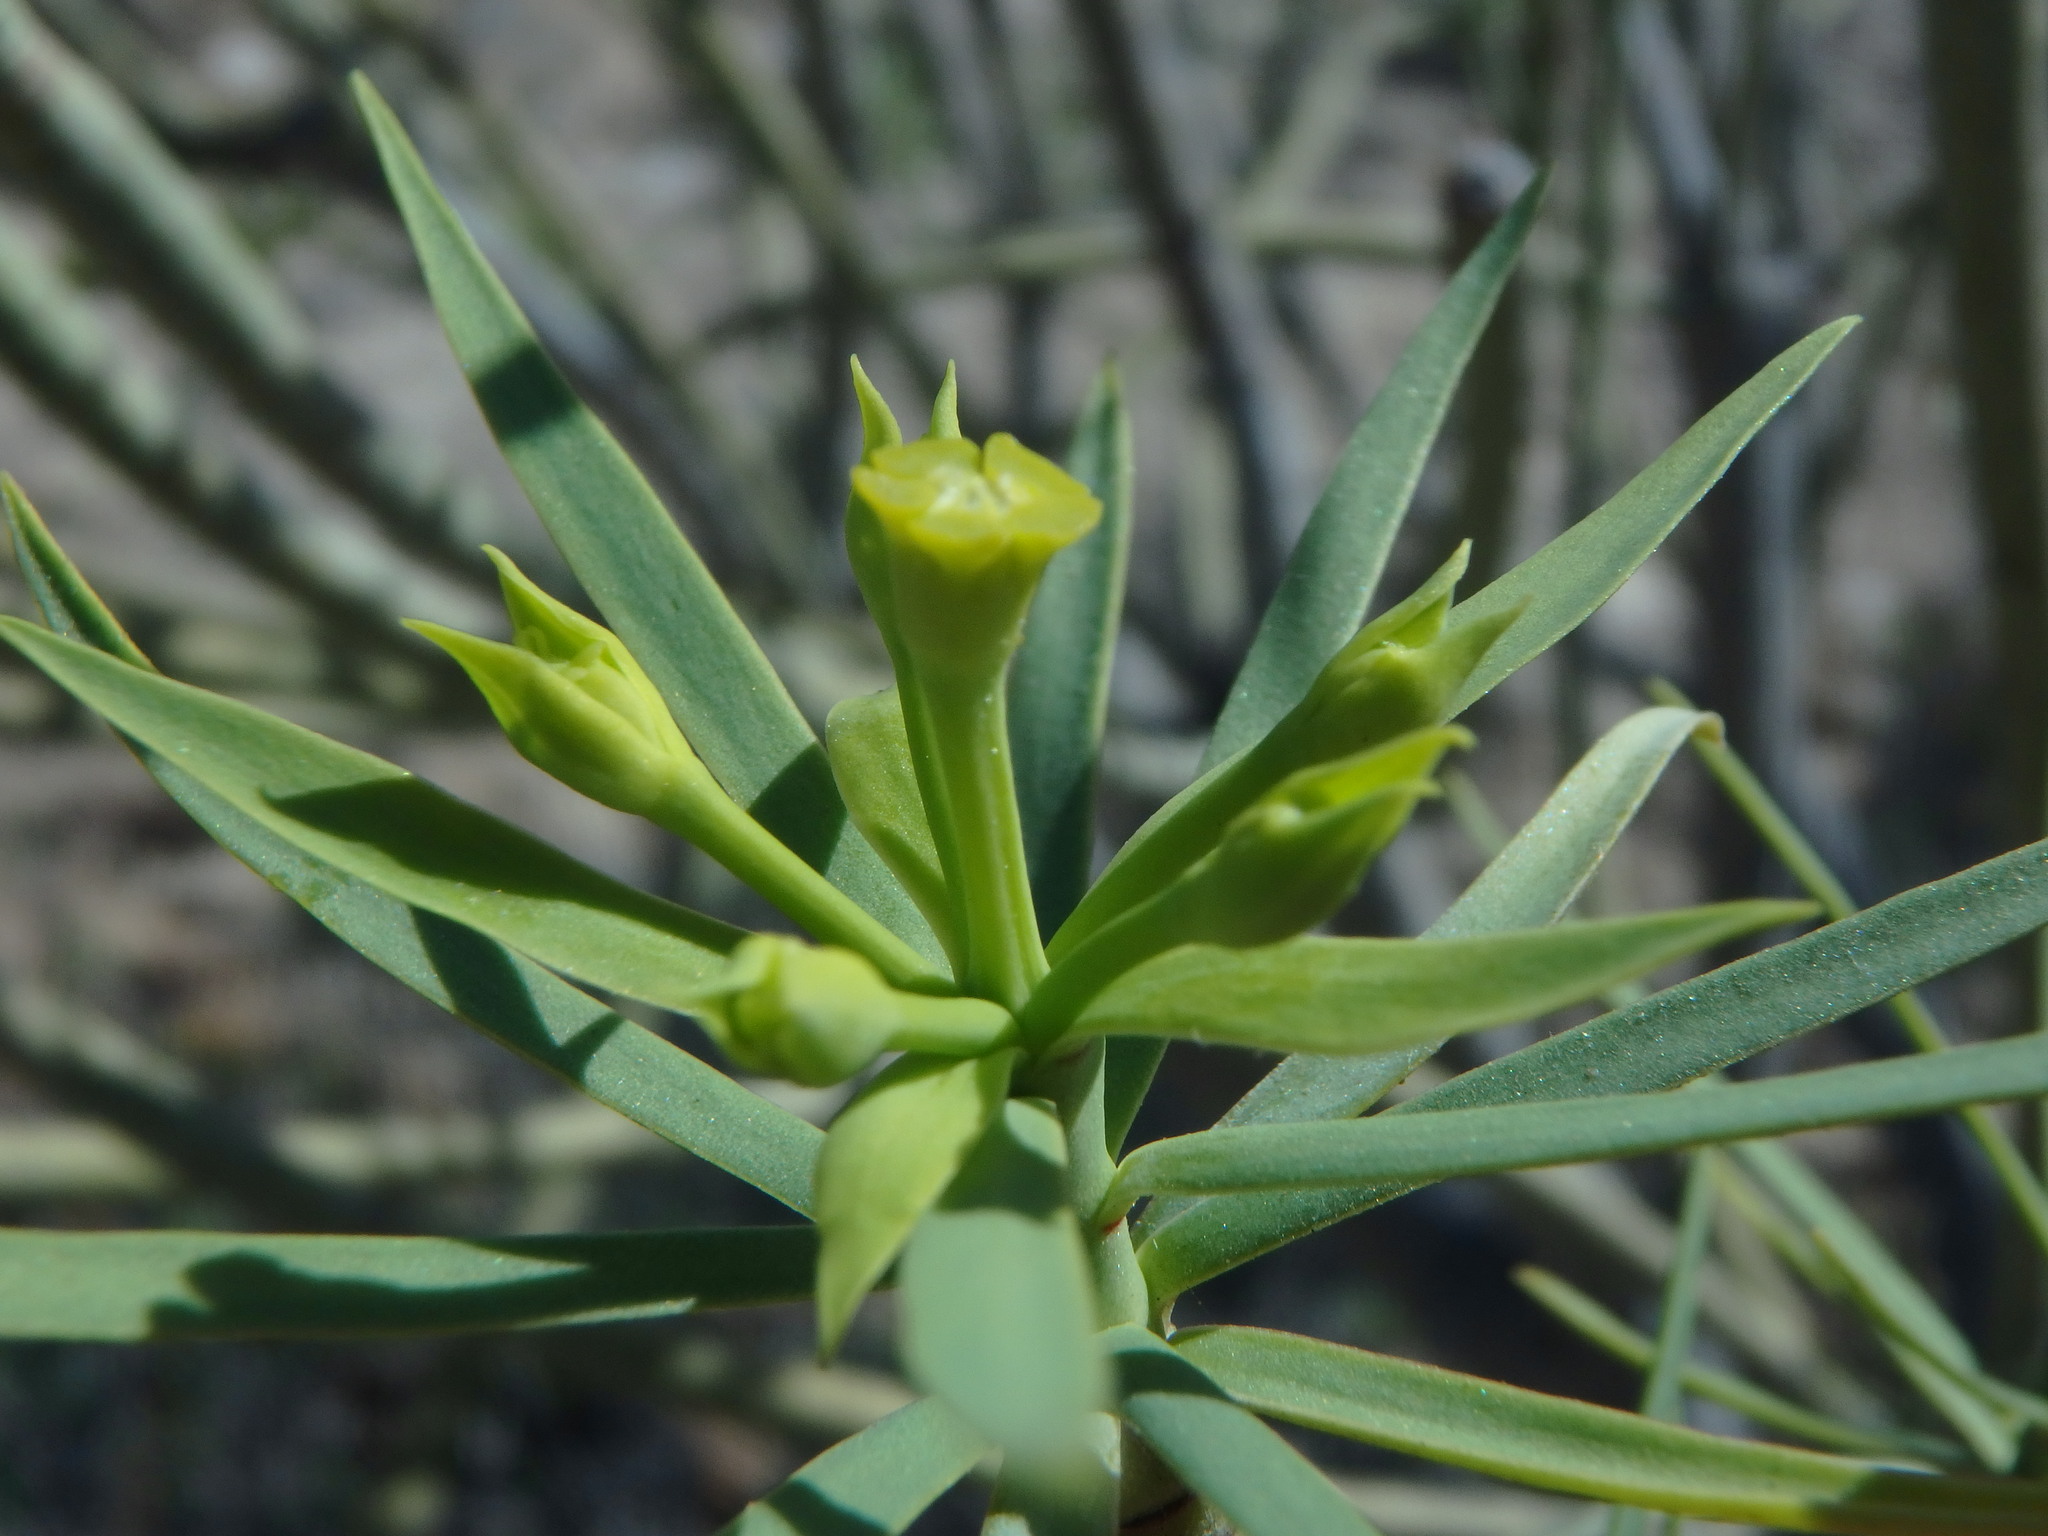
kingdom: Plantae
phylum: Tracheophyta
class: Magnoliopsida
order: Malpighiales
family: Euphorbiaceae
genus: Euphorbia
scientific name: Euphorbia lamarckii
